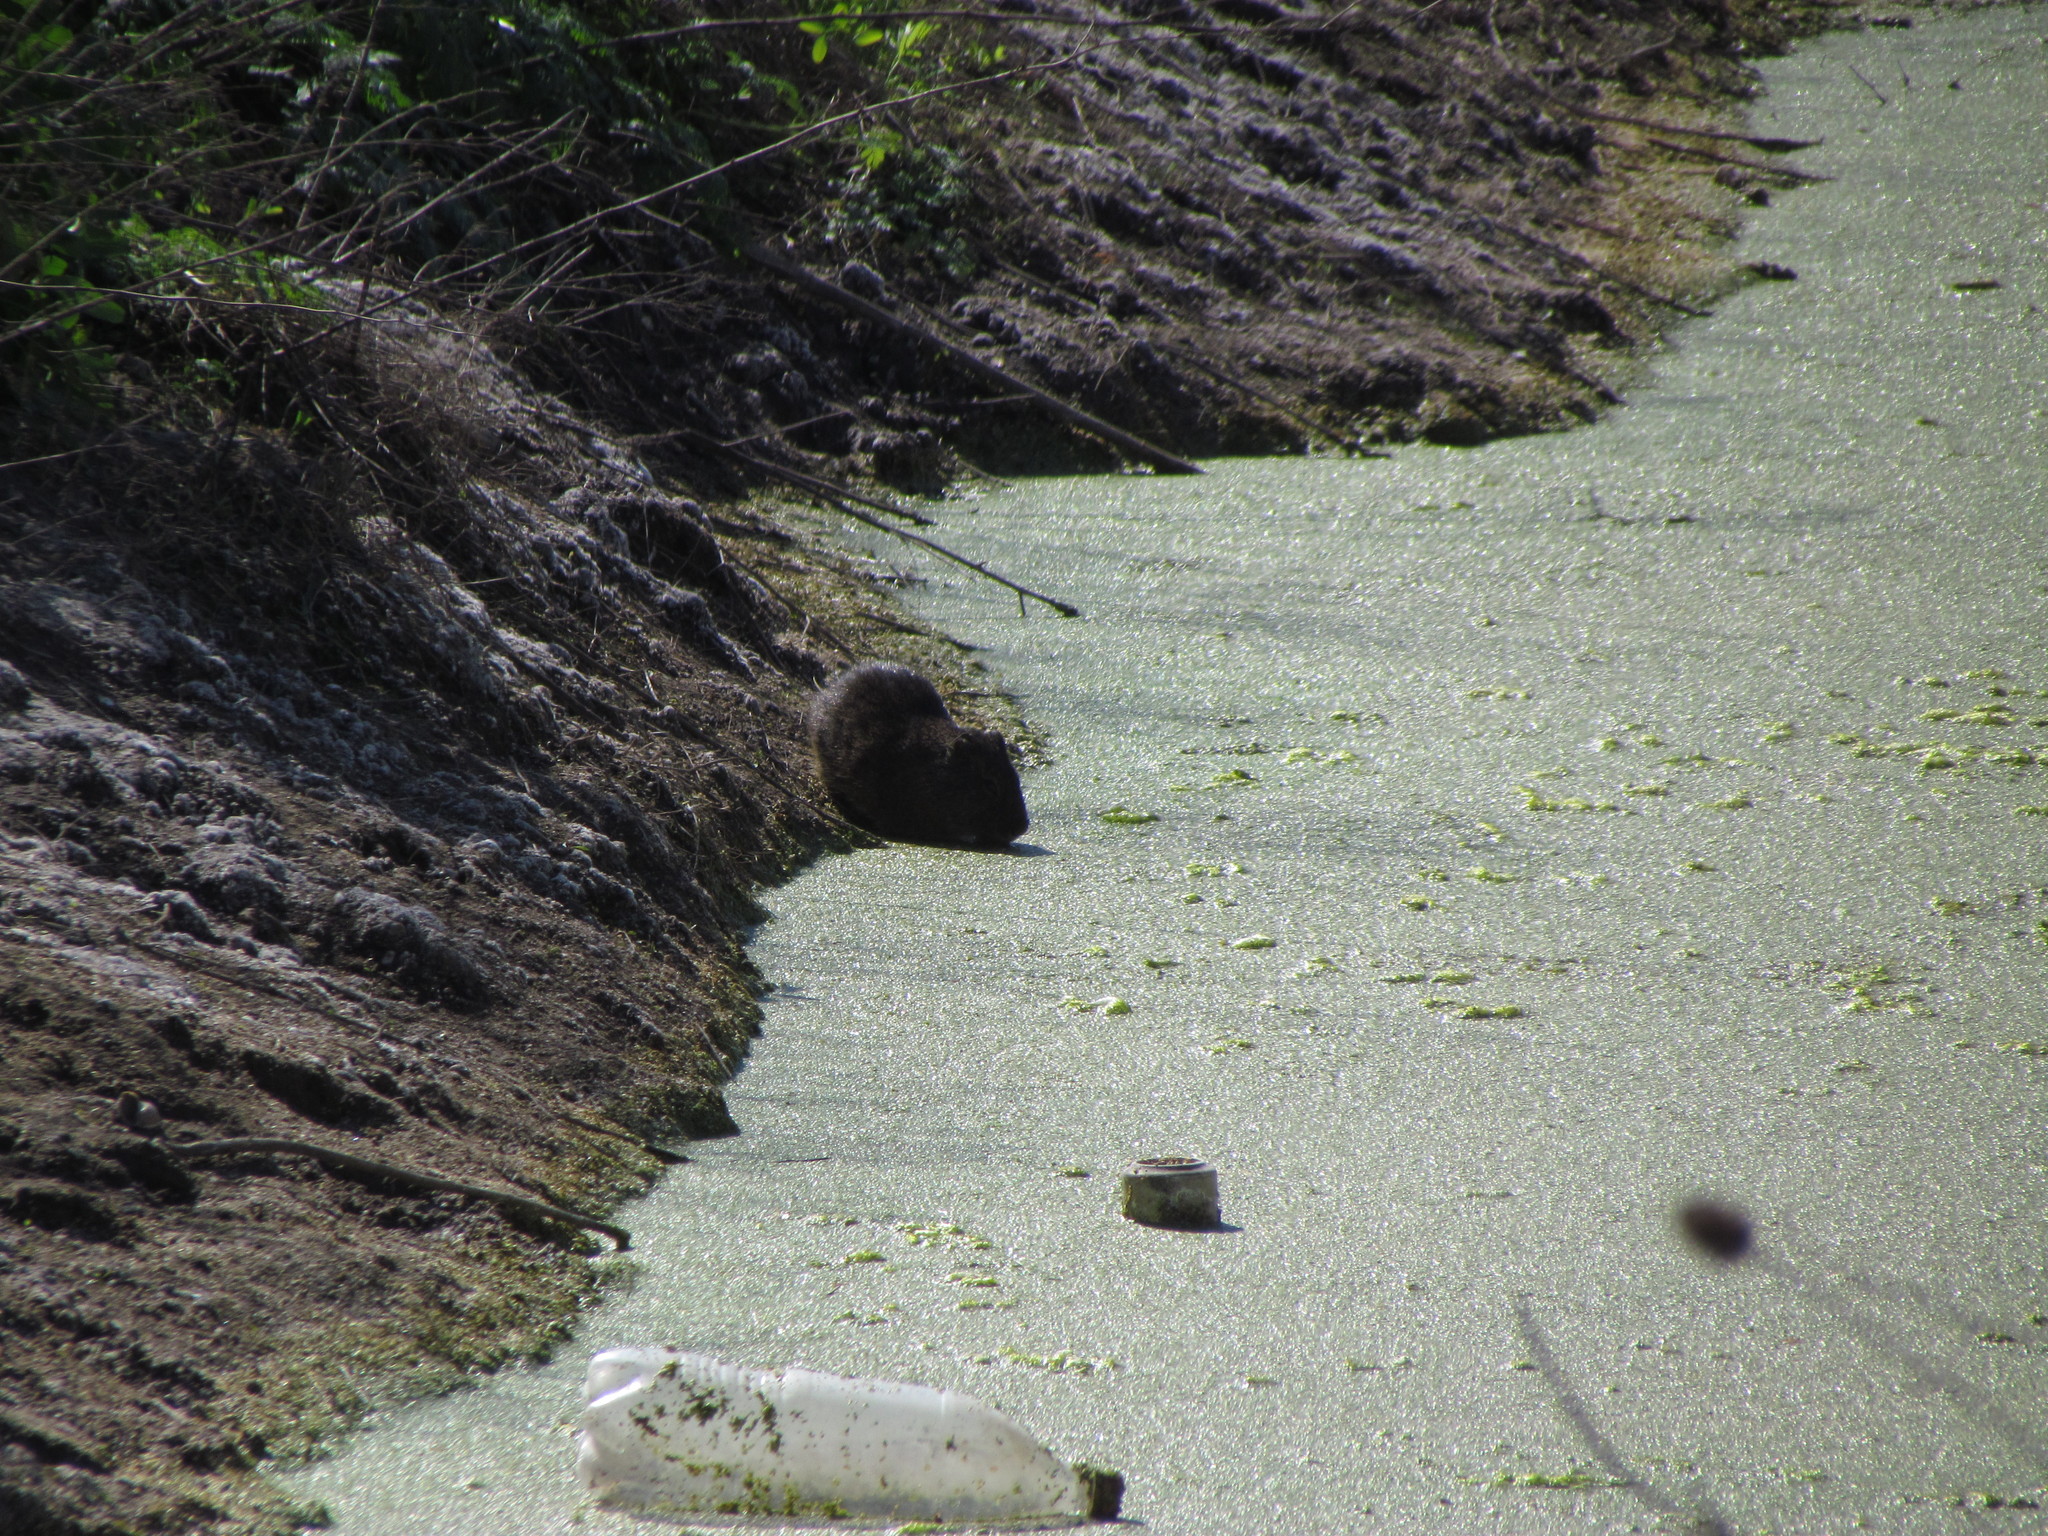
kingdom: Animalia
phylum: Chordata
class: Mammalia
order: Rodentia
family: Myocastoridae
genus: Myocastor
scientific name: Myocastor coypus
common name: Coypu
